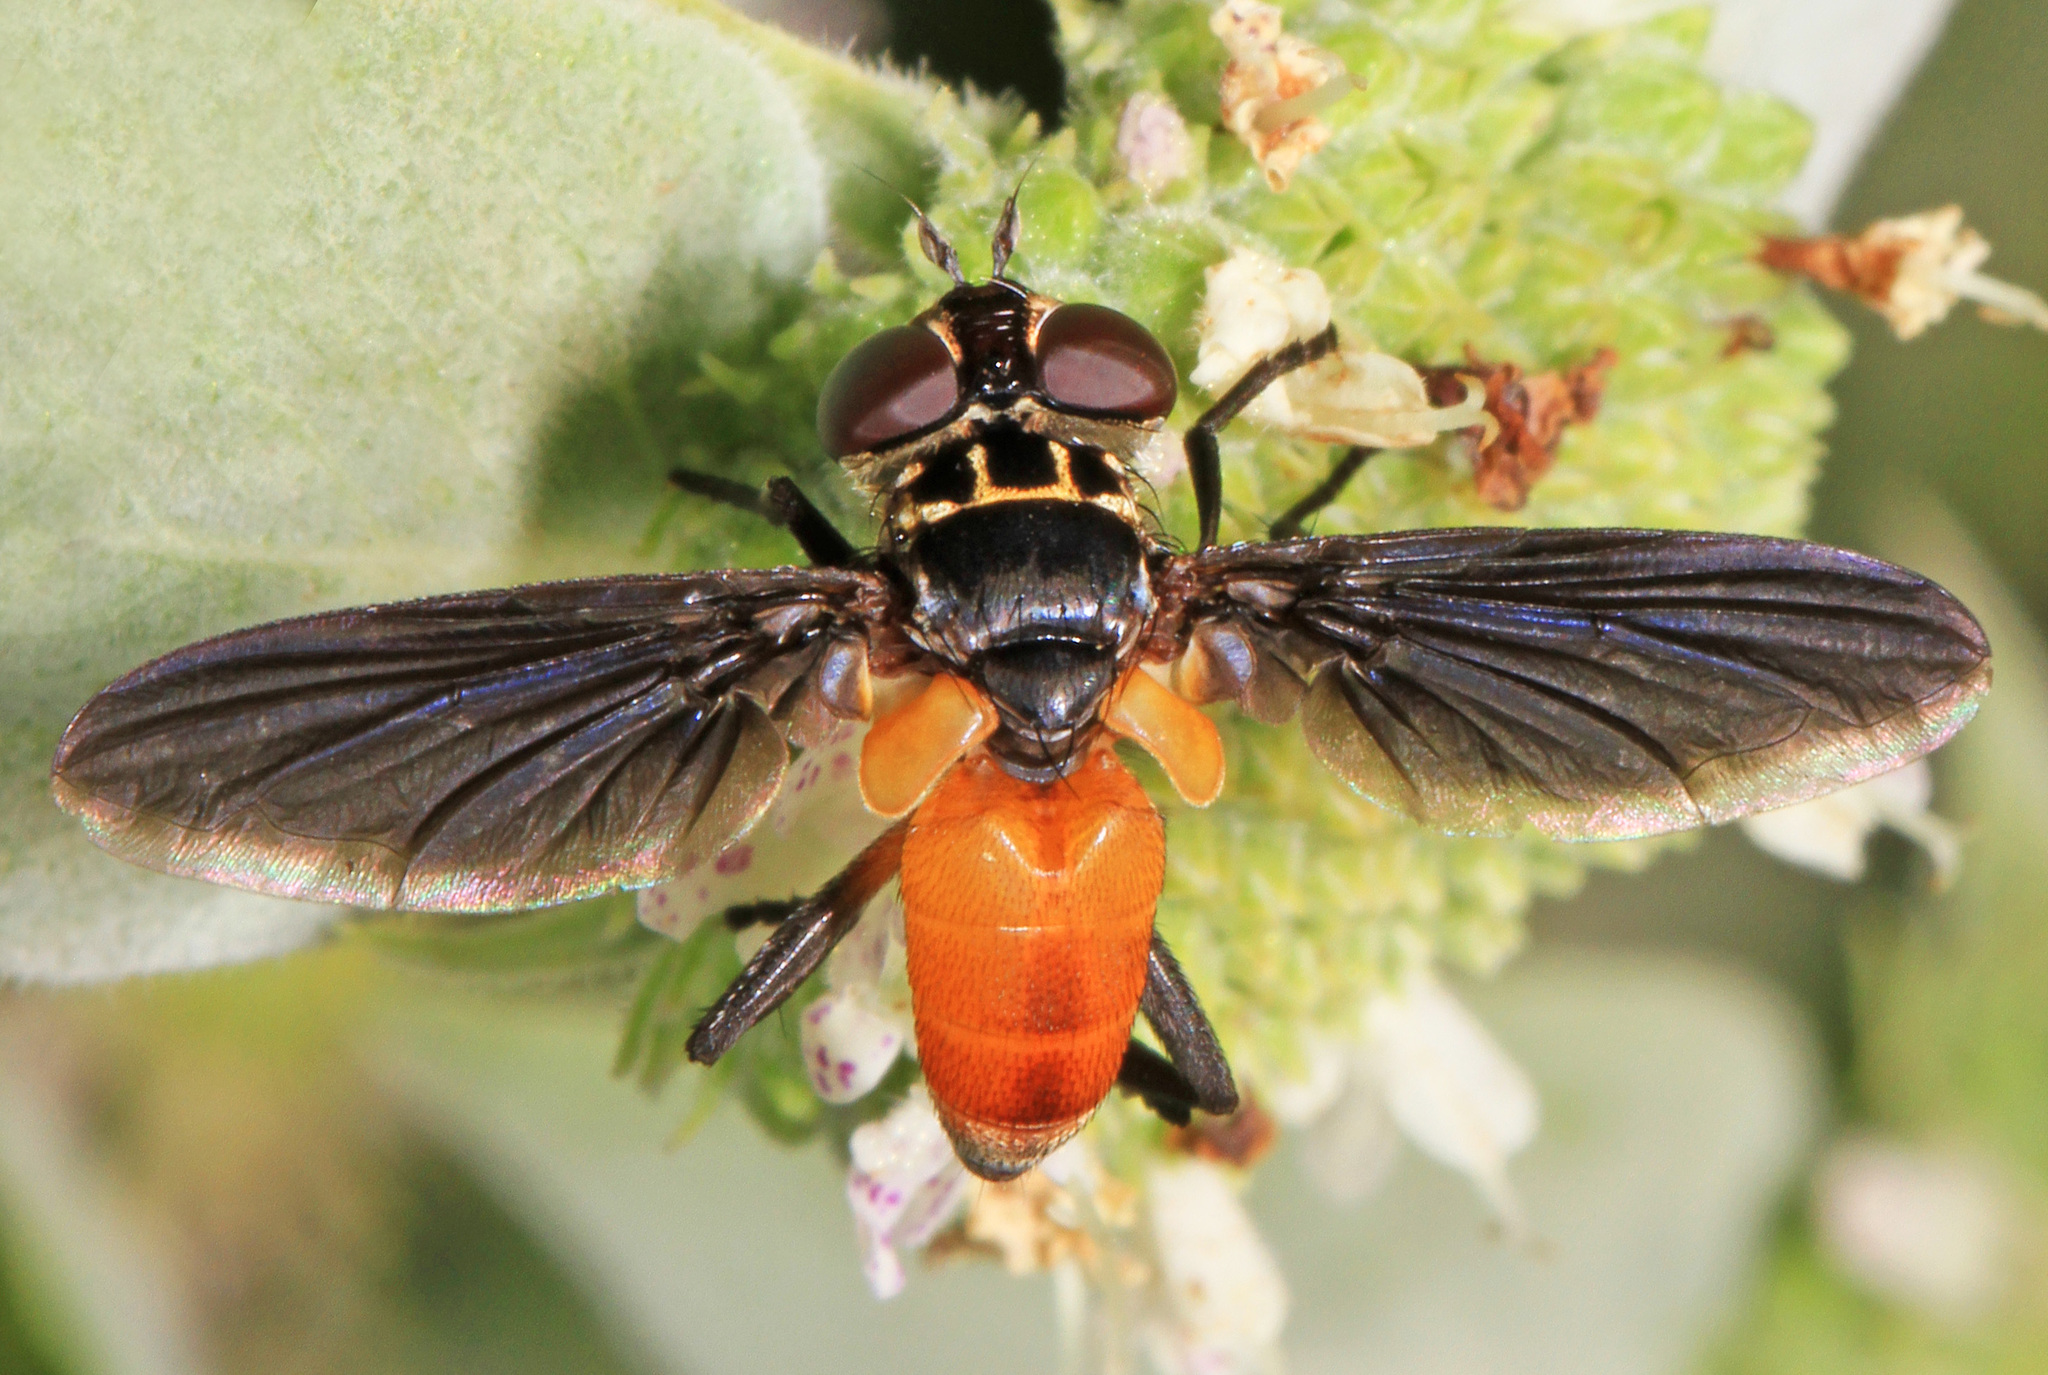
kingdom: Animalia
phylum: Arthropoda
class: Insecta
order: Diptera
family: Tachinidae
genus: Trichopoda
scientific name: Trichopoda pennipes
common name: Tachinid fly
